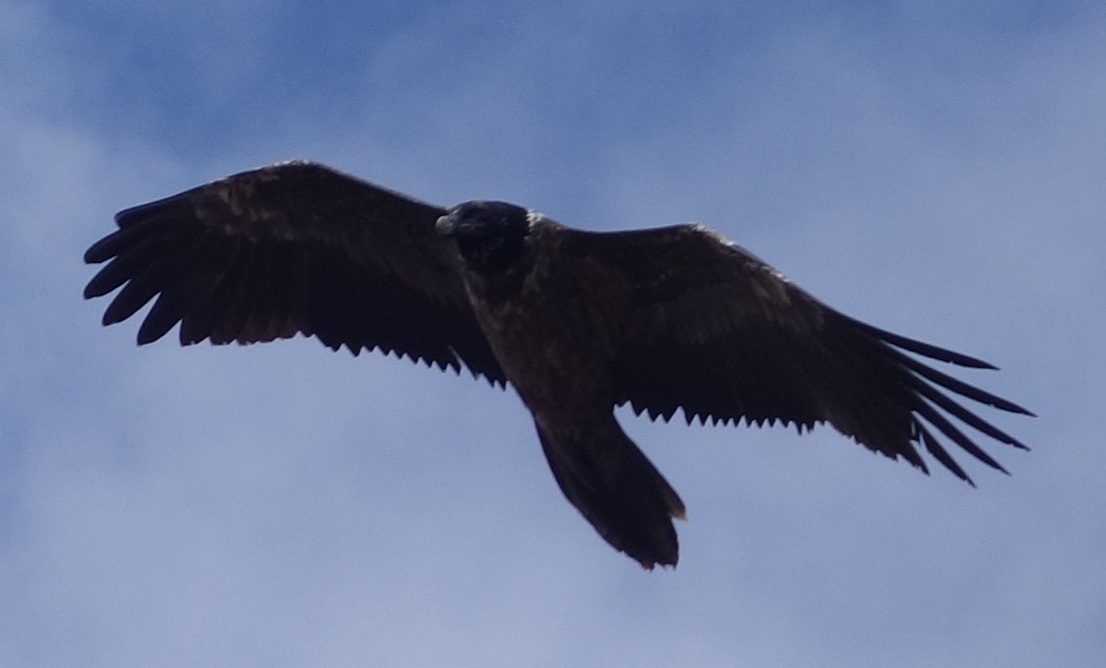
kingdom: Animalia
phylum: Chordata
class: Aves
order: Accipitriformes
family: Accipitridae
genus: Gypaetus
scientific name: Gypaetus barbatus
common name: Bearded vulture
